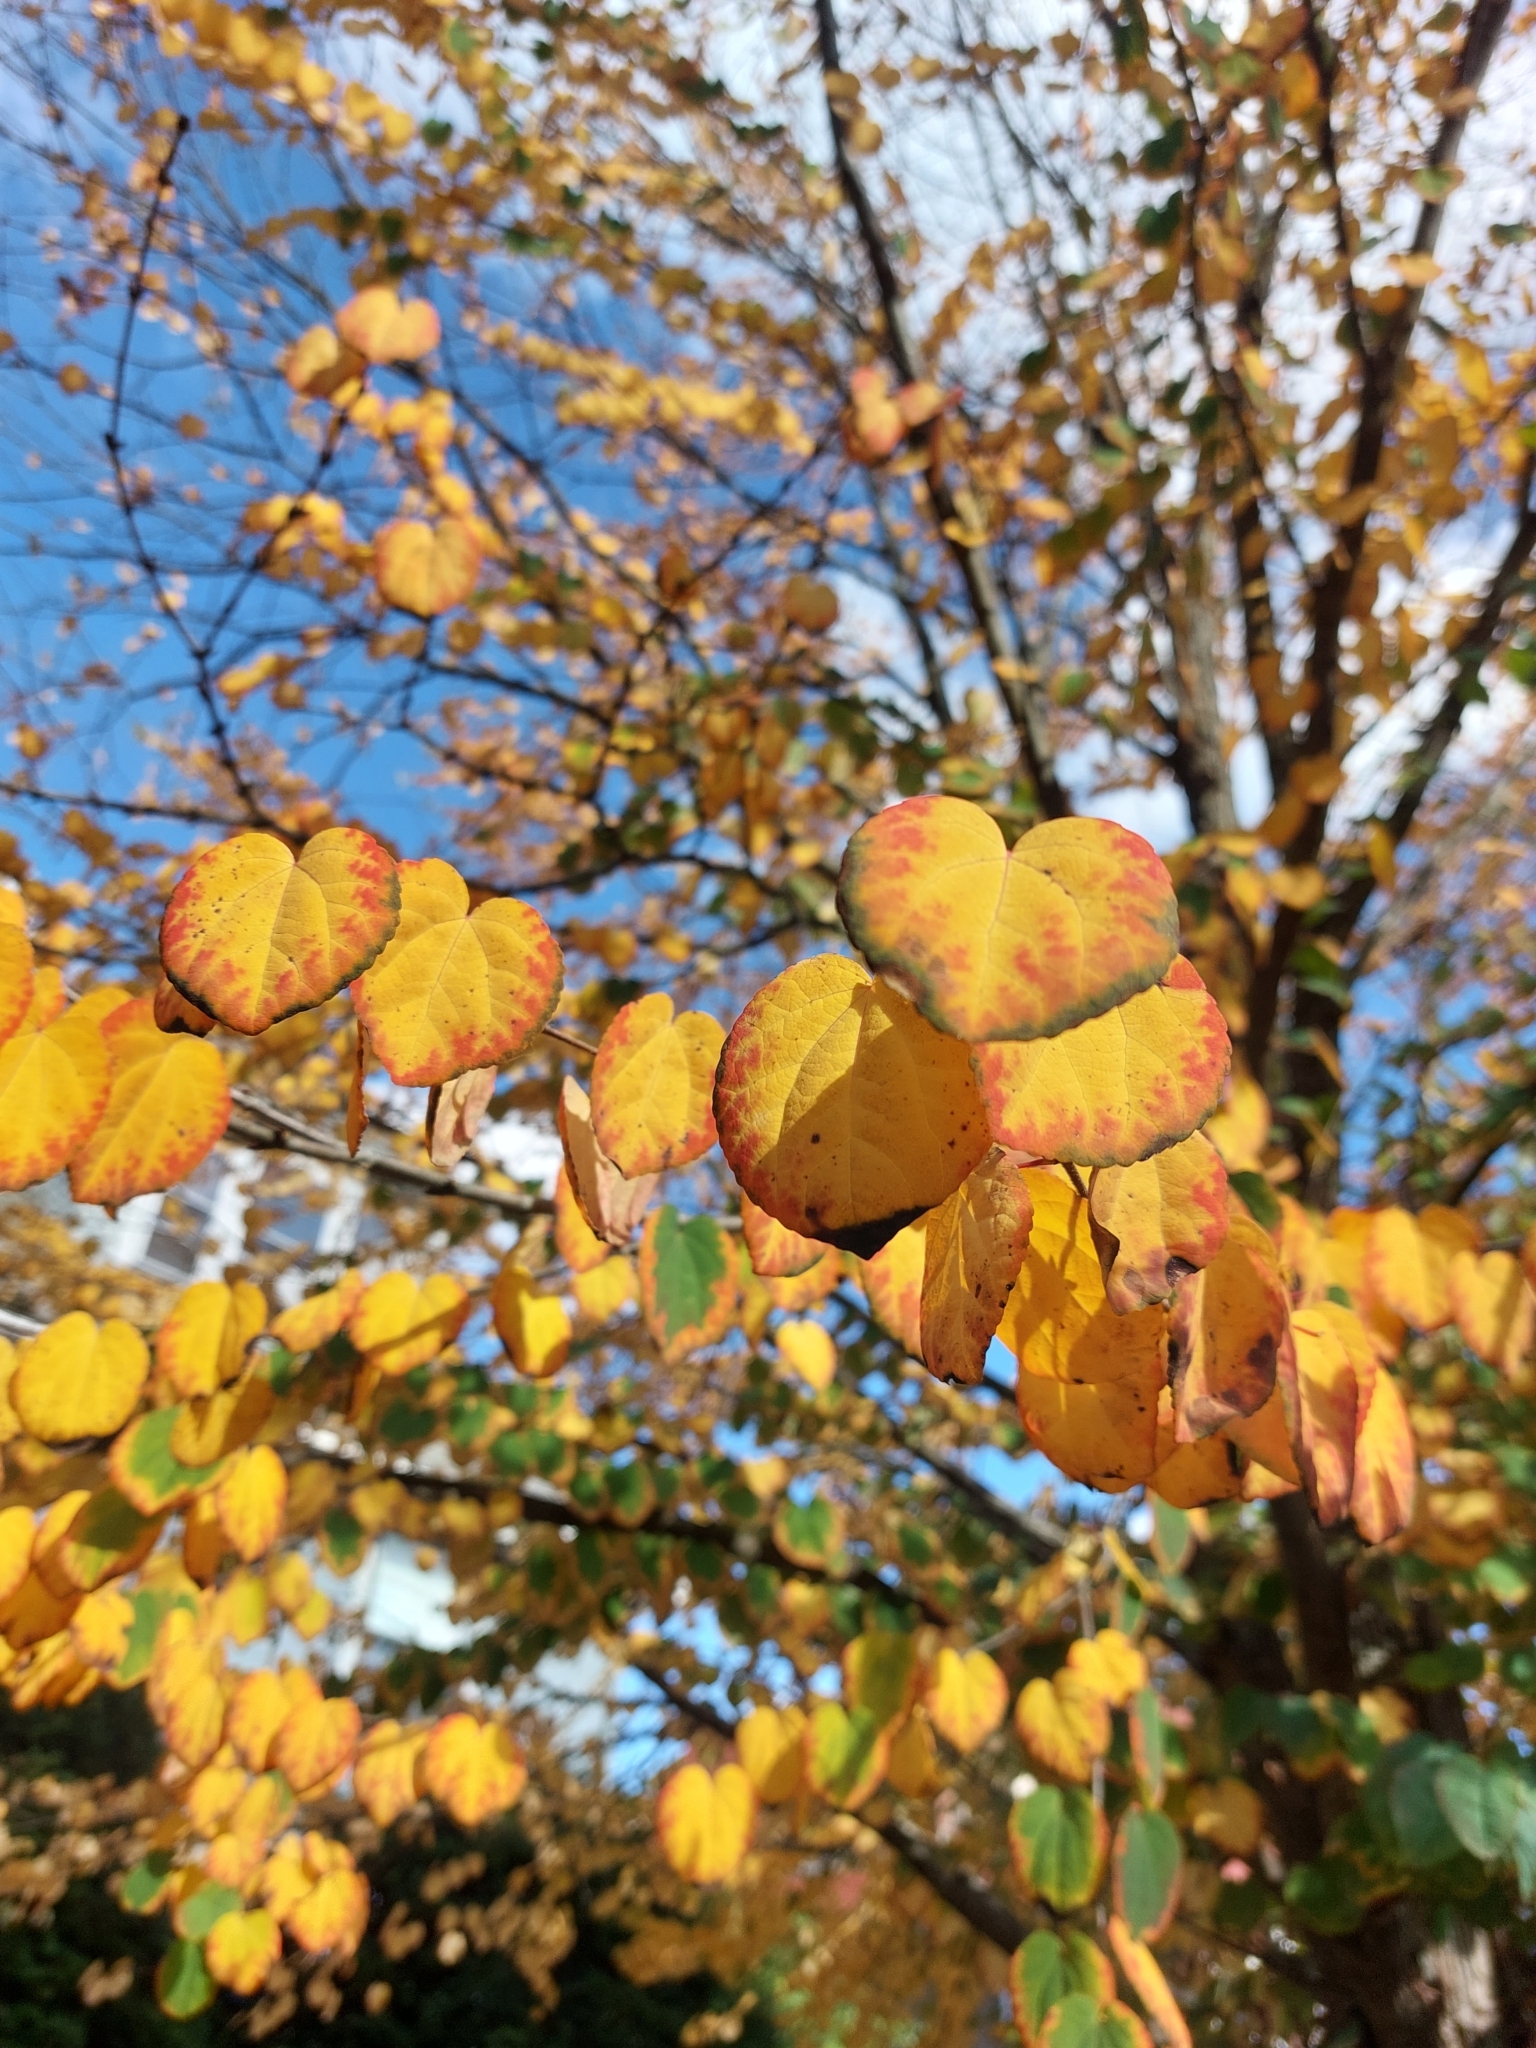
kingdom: Plantae
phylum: Tracheophyta
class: Magnoliopsida
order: Saxifragales
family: Cercidiphyllaceae
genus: Cercidiphyllum
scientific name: Cercidiphyllum japonicum
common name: Katsura tree
